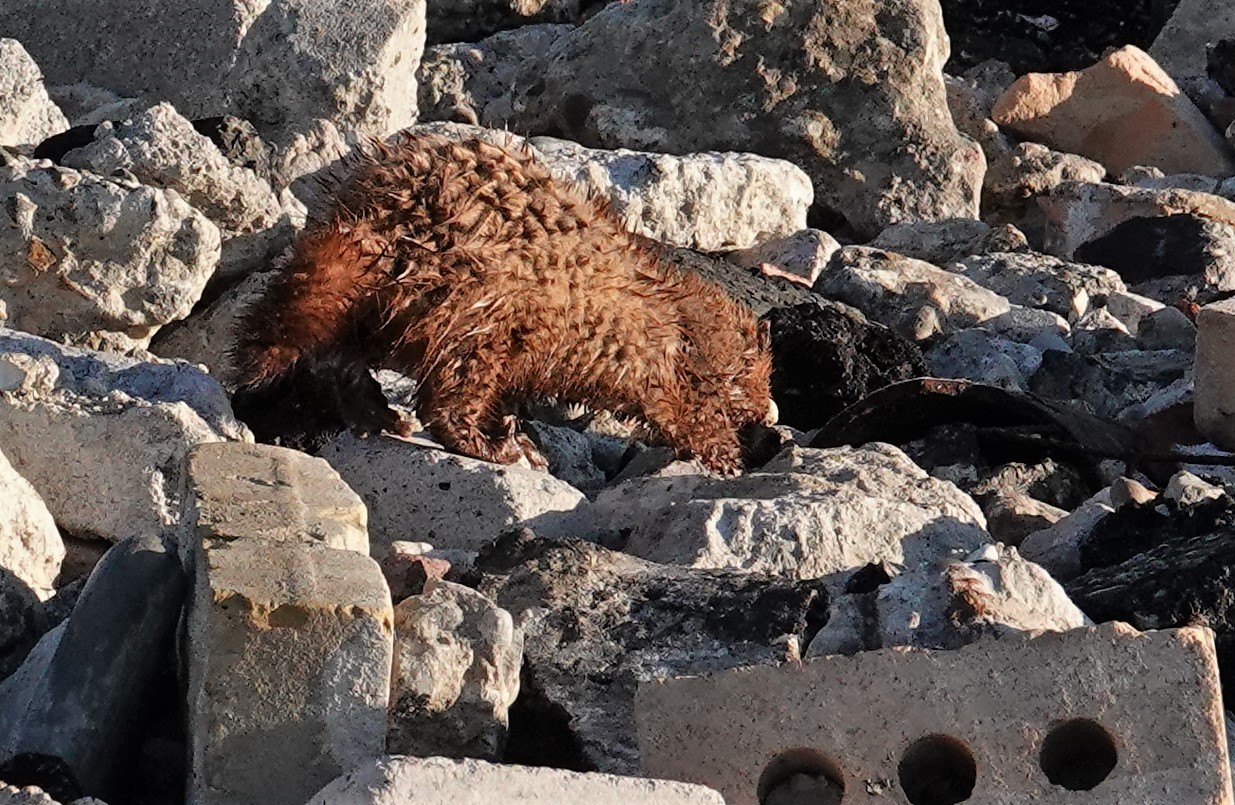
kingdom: Animalia
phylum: Chordata
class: Mammalia
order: Carnivora
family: Mustelidae
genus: Mustela
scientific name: Mustela
